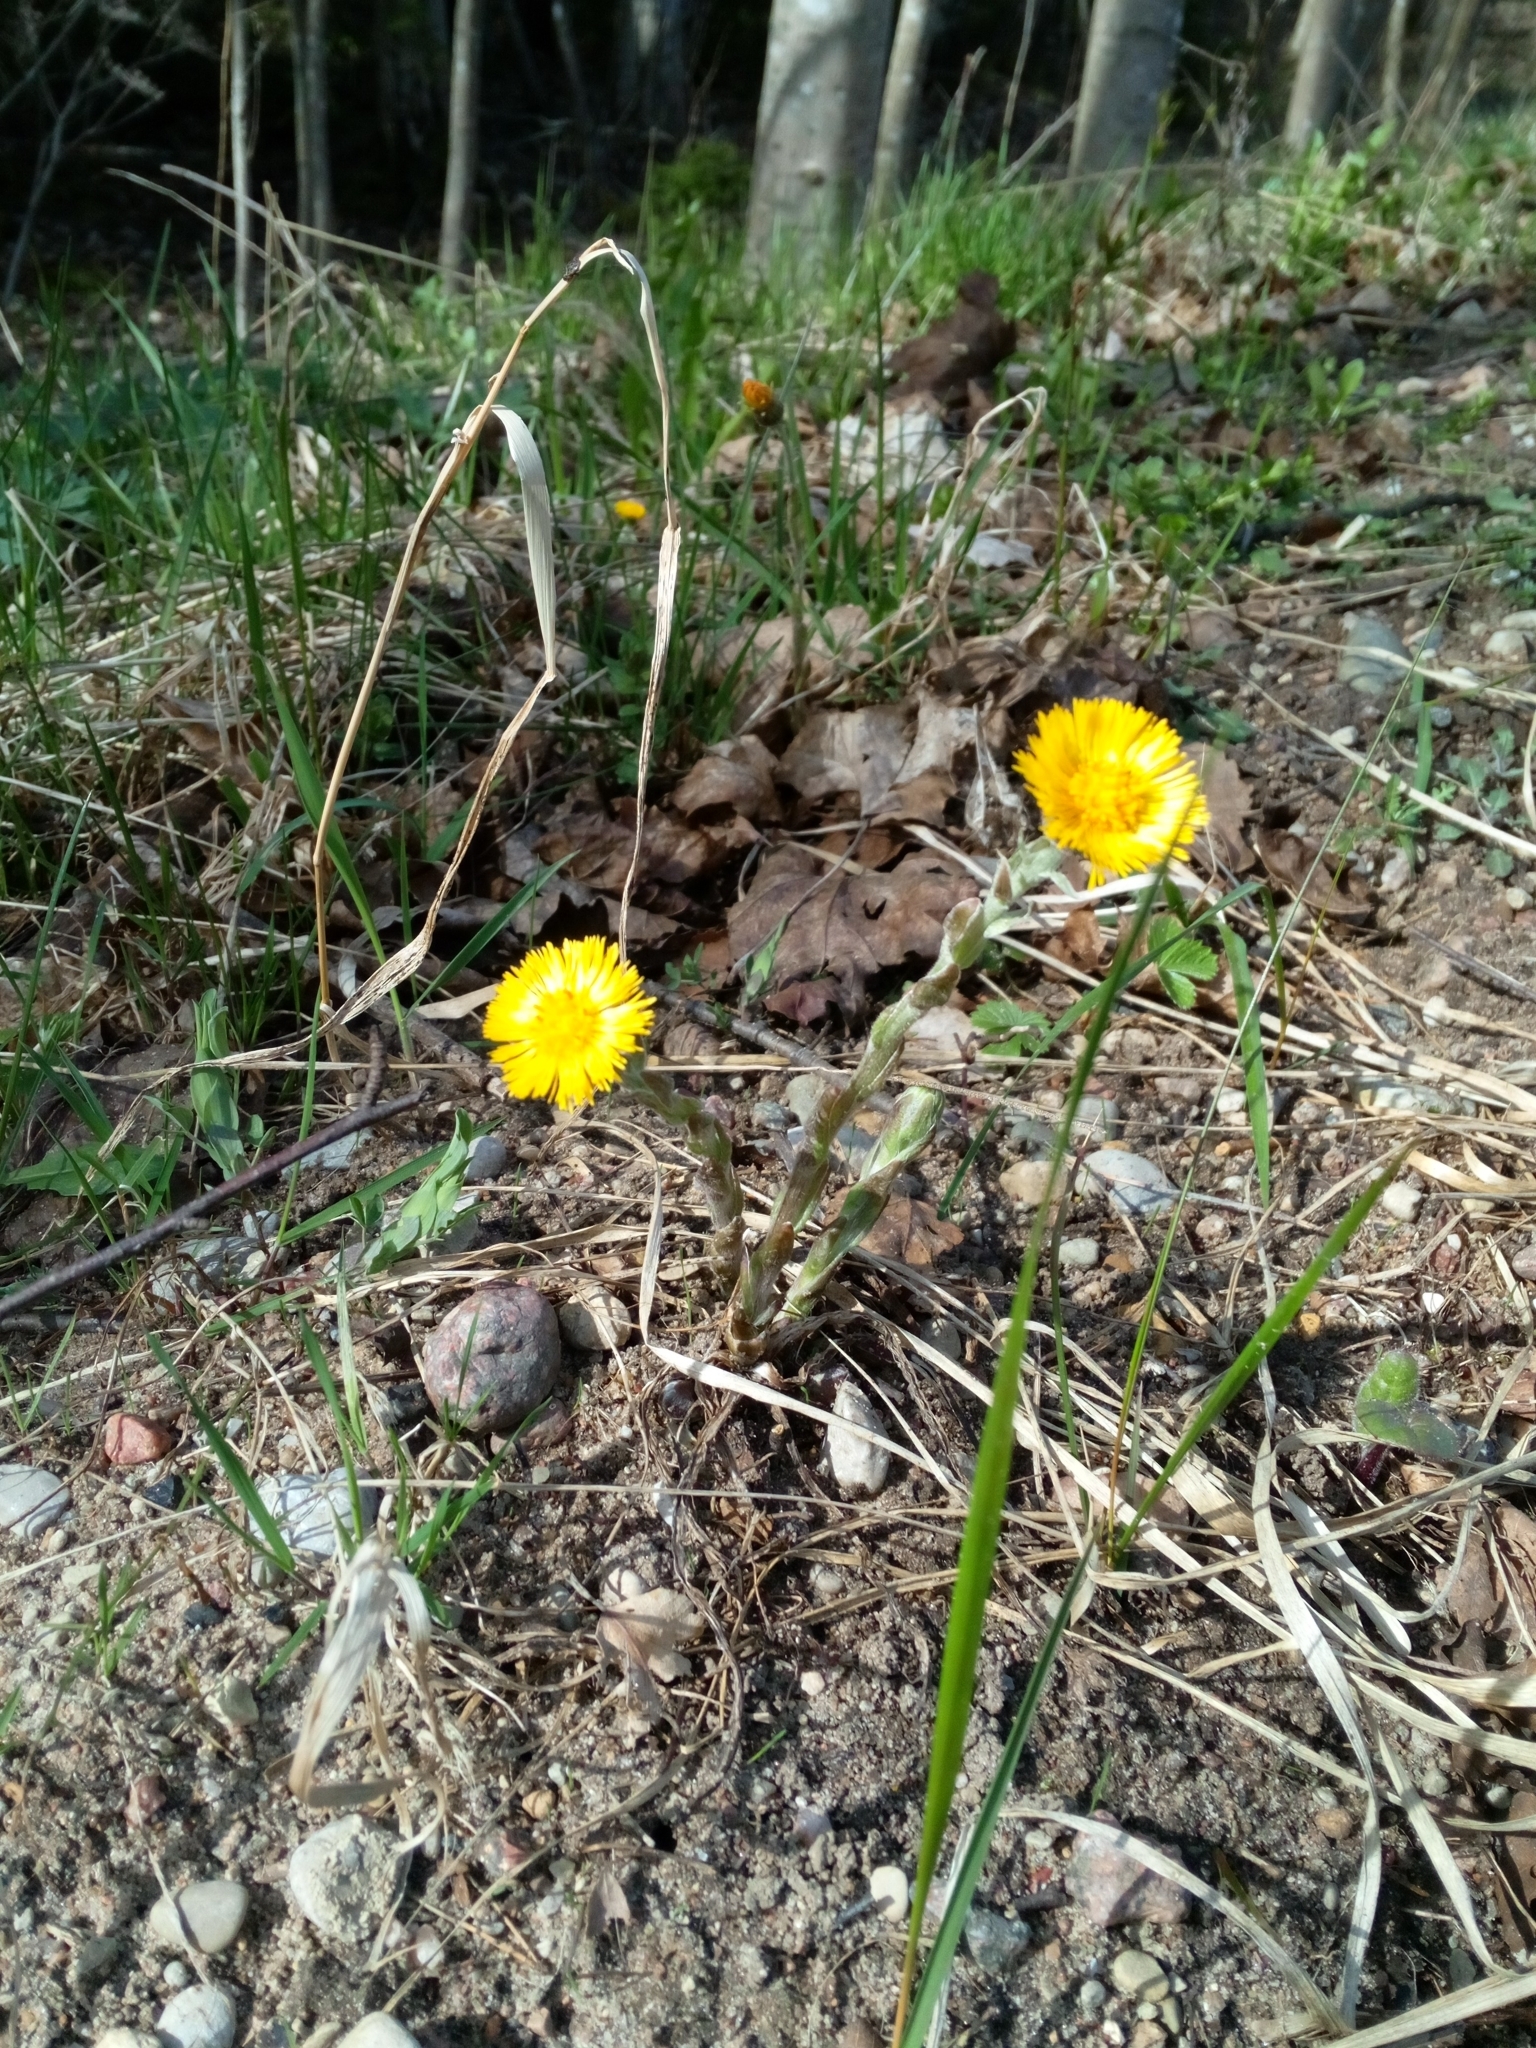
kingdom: Plantae
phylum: Tracheophyta
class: Magnoliopsida
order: Asterales
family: Asteraceae
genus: Tussilago
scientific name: Tussilago farfara
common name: Coltsfoot
